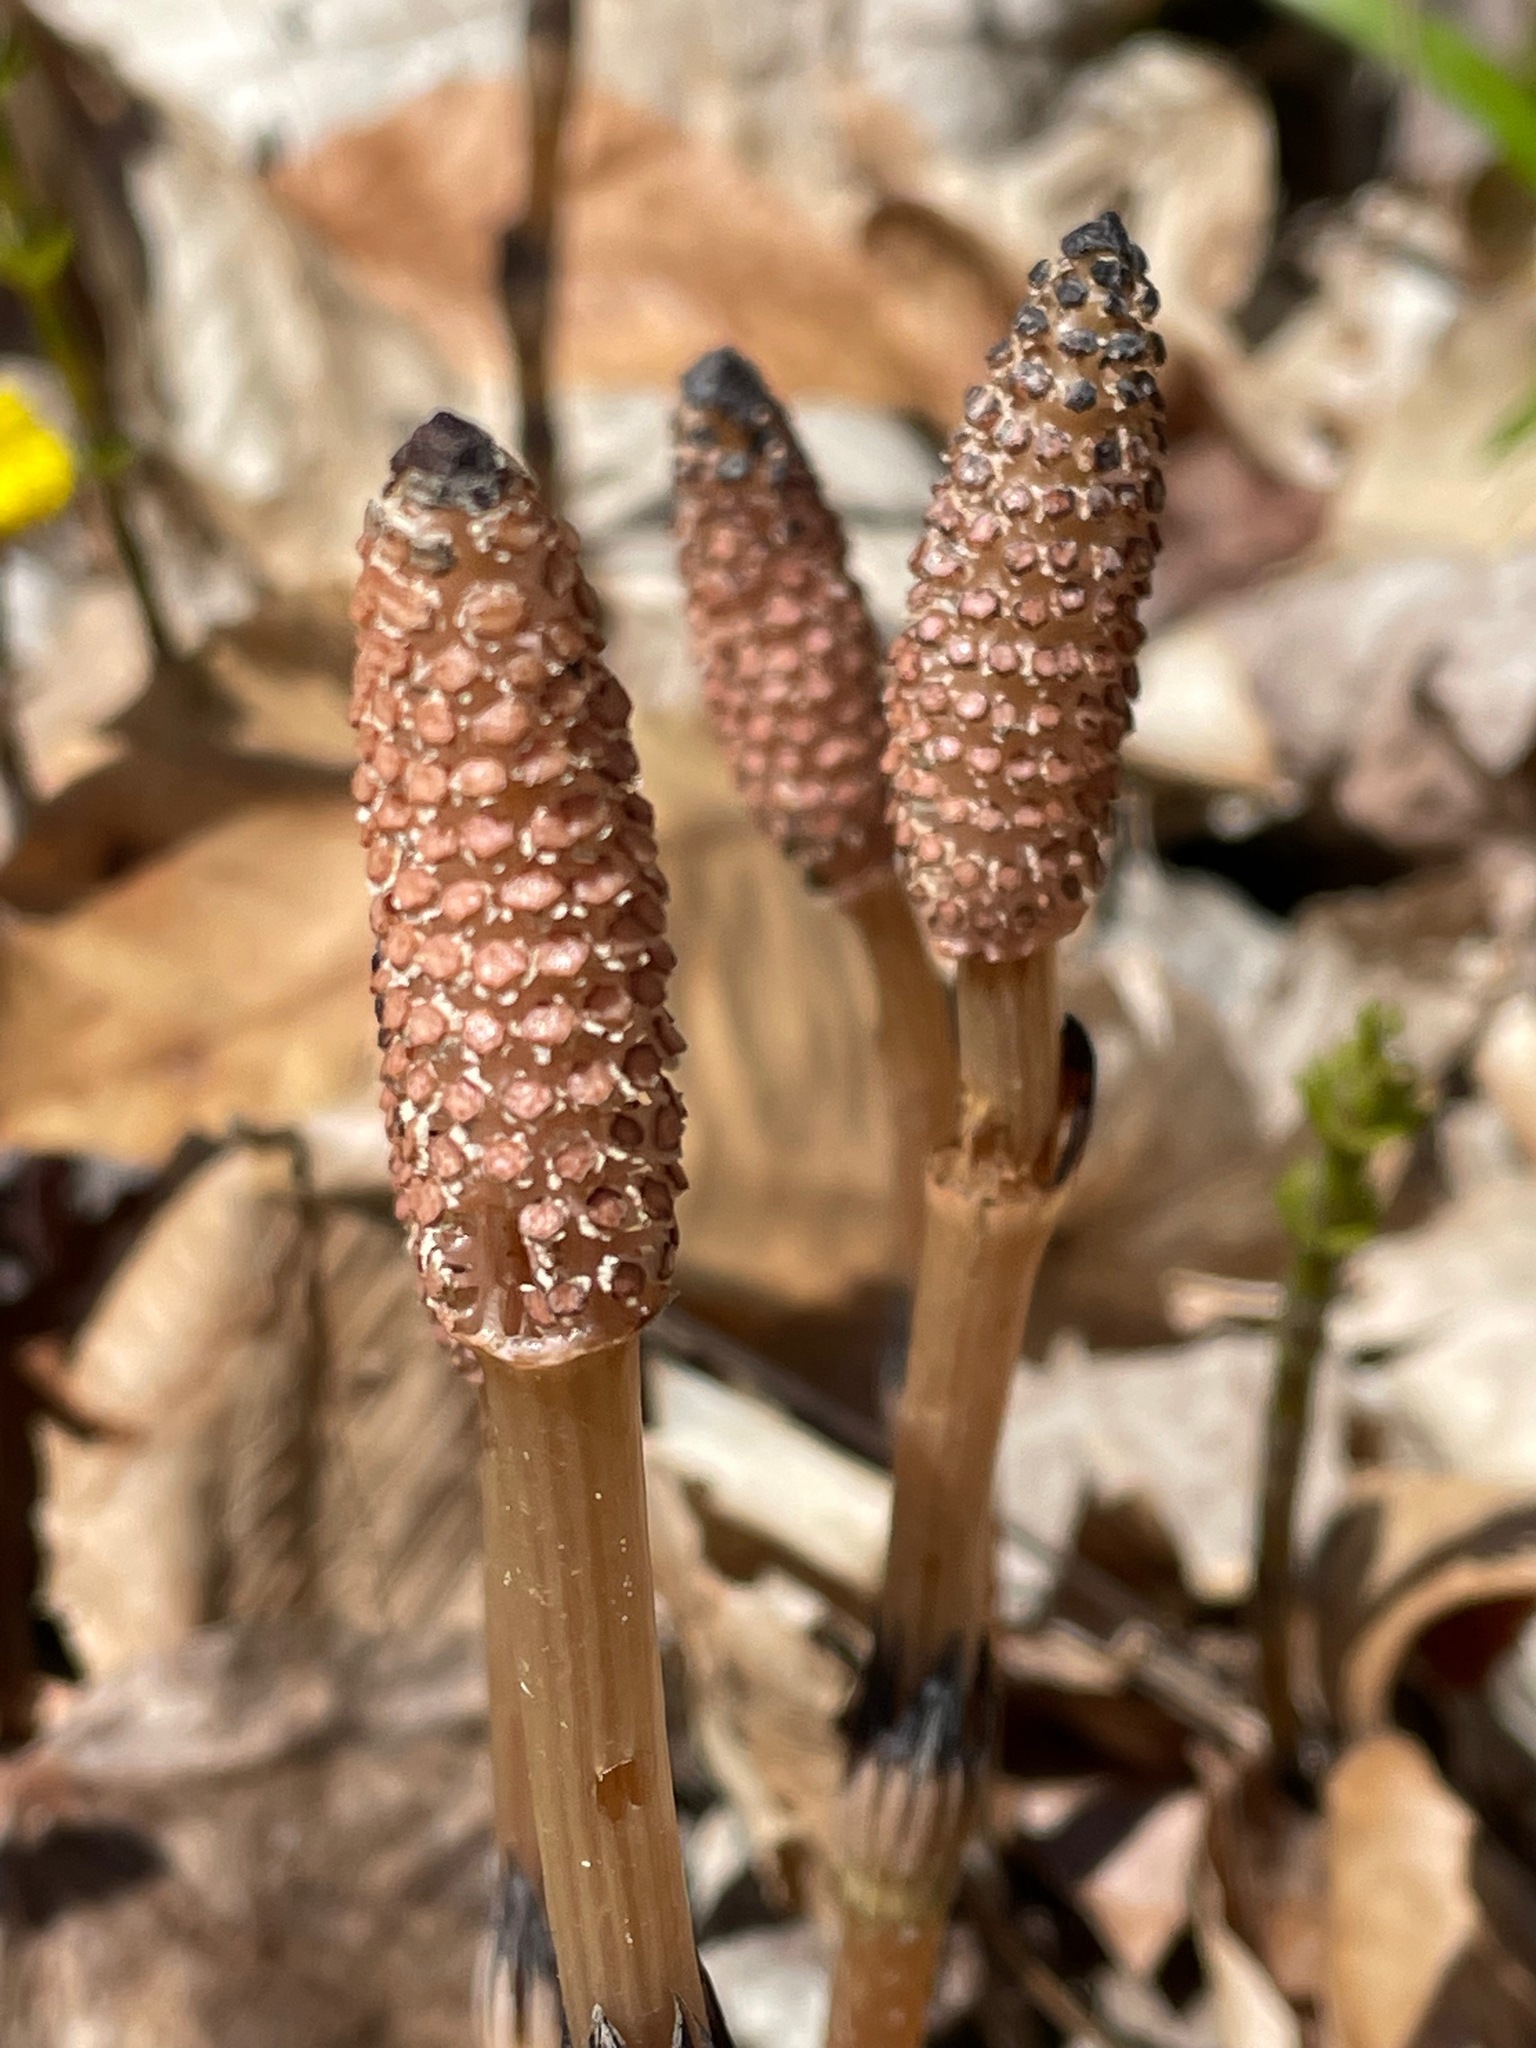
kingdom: Plantae
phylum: Tracheophyta
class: Polypodiopsida
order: Equisetales
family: Equisetaceae
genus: Equisetum
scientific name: Equisetum arvense
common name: Field horsetail
